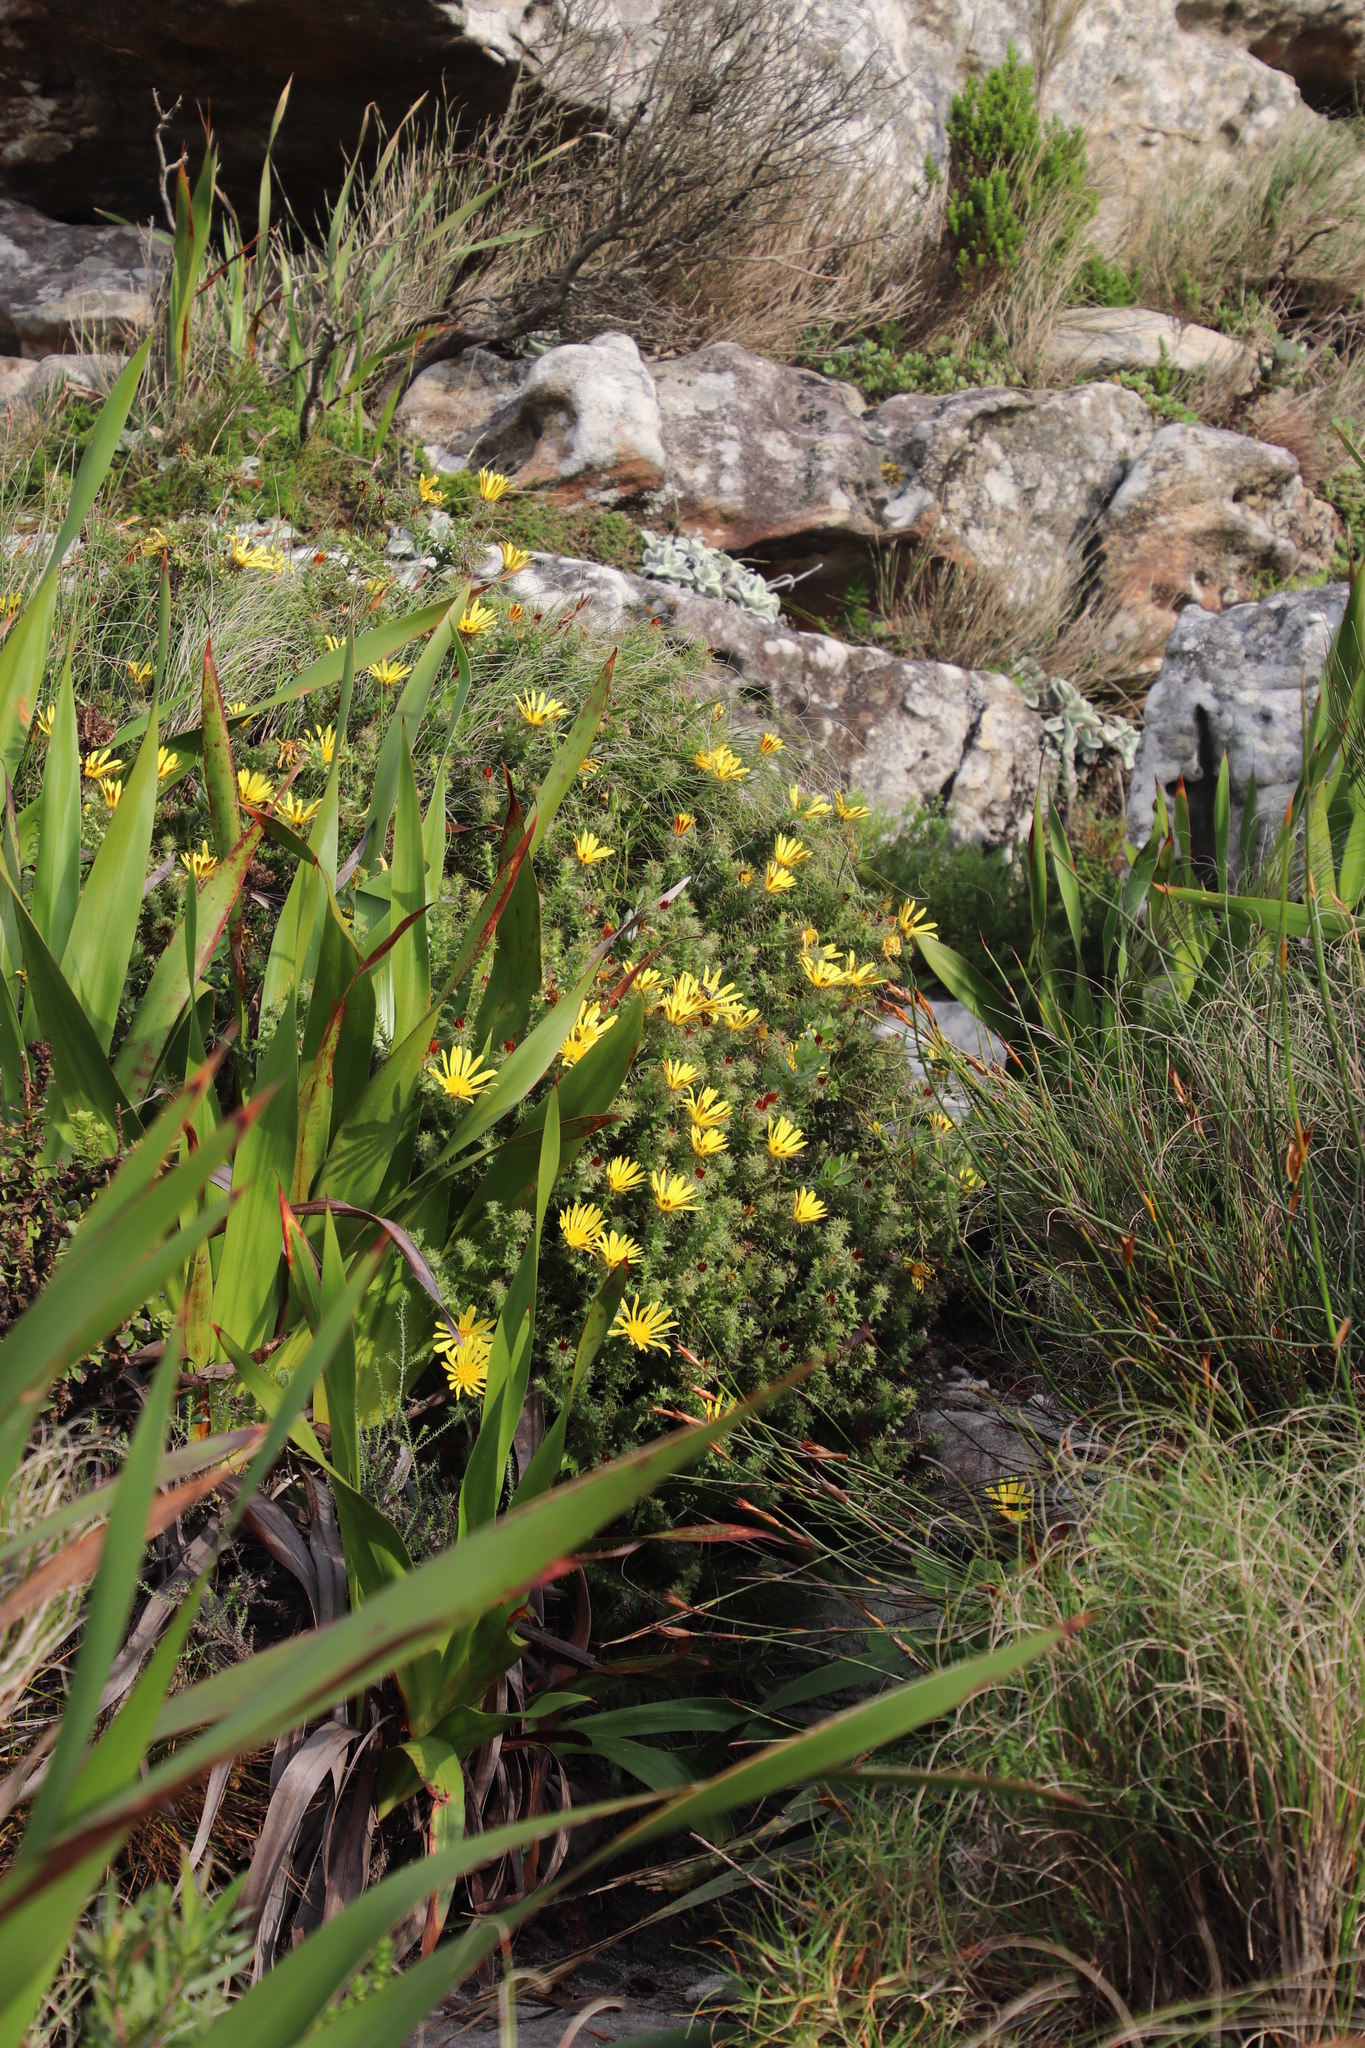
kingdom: Plantae
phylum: Tracheophyta
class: Magnoliopsida
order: Asterales
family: Asteraceae
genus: Cullumia
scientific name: Cullumia setosa
